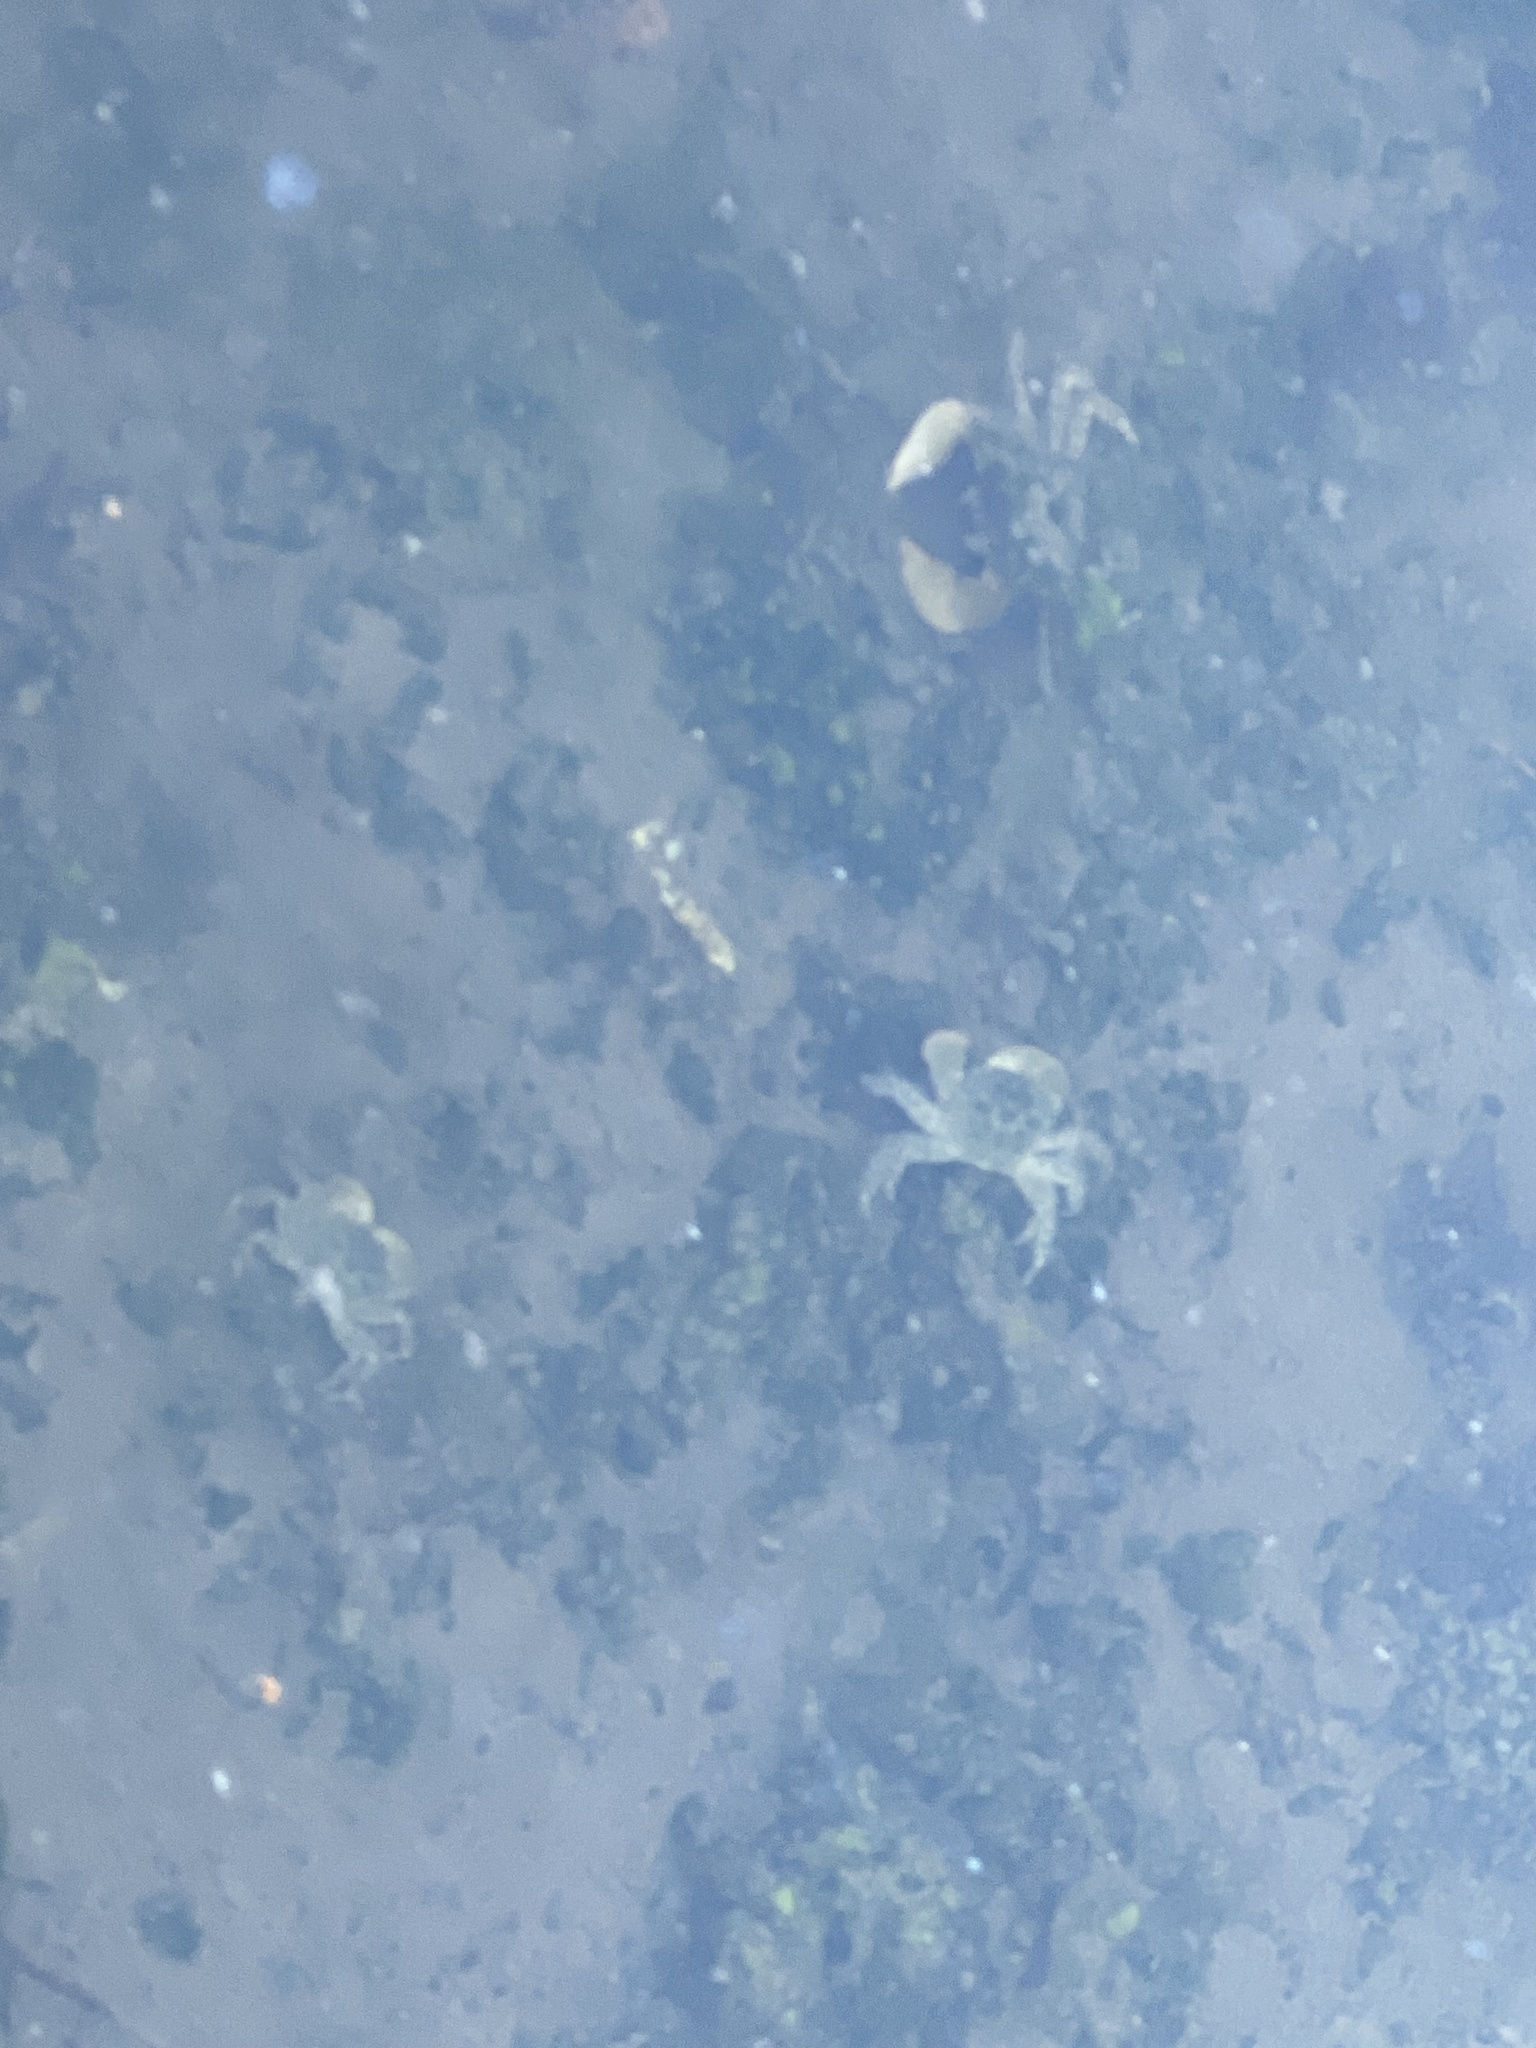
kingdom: Animalia
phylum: Arthropoda
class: Malacostraca
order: Decapoda
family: Varunidae
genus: Hemigrapsus
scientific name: Hemigrapsus oregonensis
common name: Yellow shore crab
